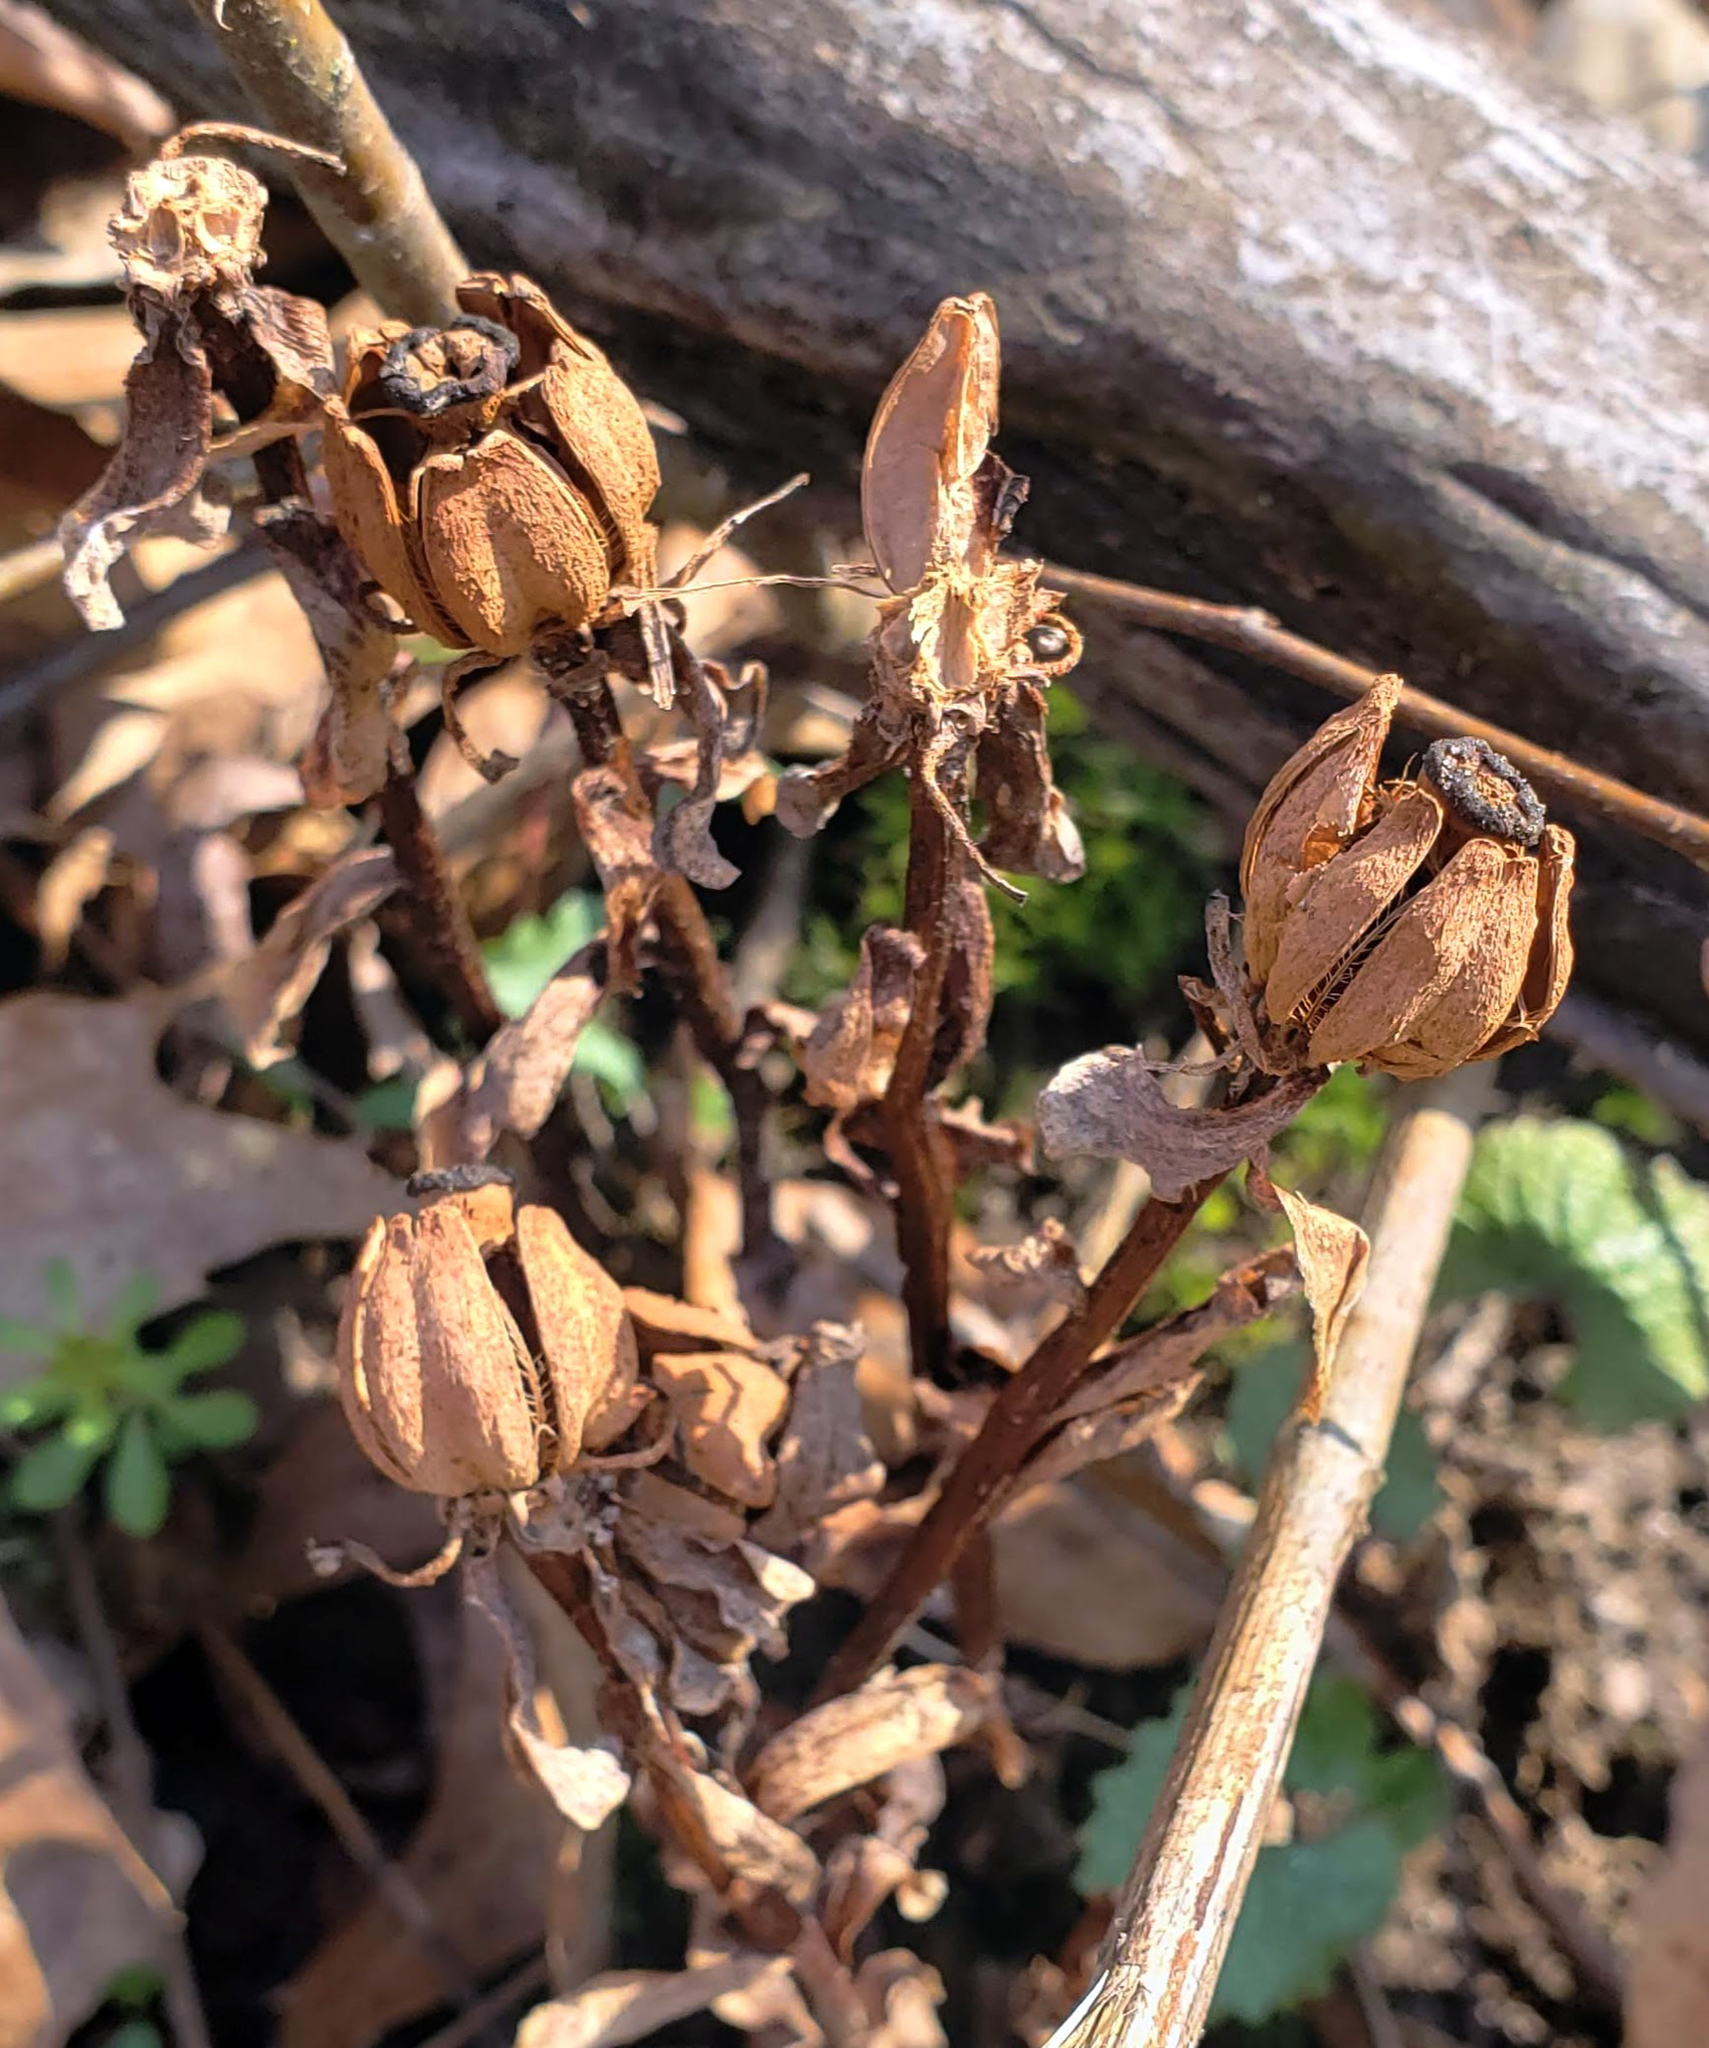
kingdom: Plantae
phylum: Tracheophyta
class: Magnoliopsida
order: Ericales
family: Ericaceae
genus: Monotropa
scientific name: Monotropa uniflora
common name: Convulsion root
